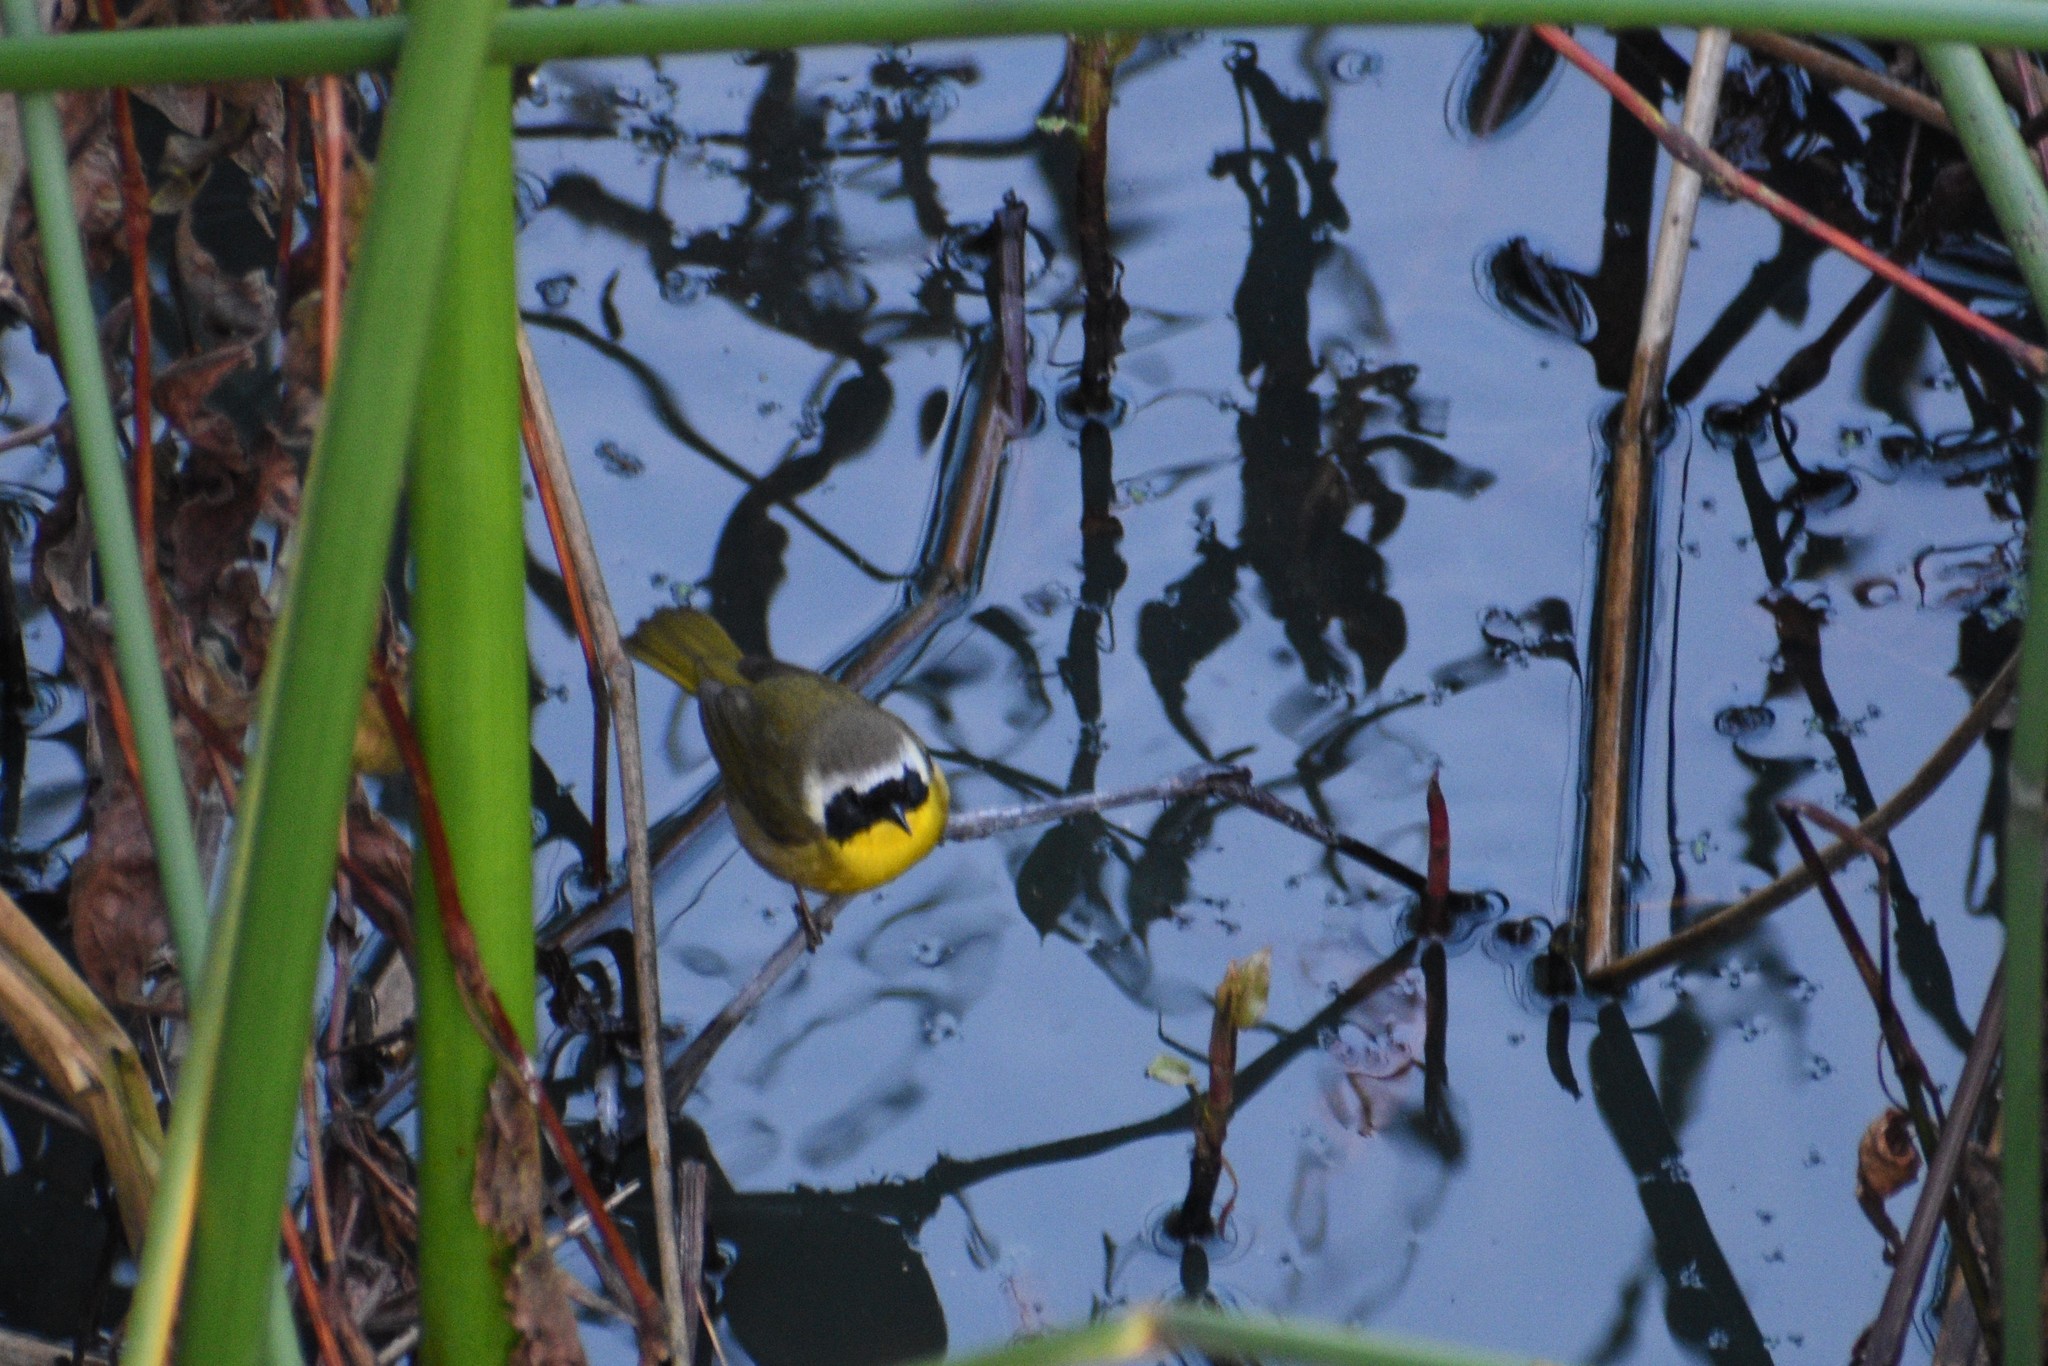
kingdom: Animalia
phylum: Chordata
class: Aves
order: Passeriformes
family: Parulidae
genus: Geothlypis
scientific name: Geothlypis trichas
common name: Common yellowthroat
